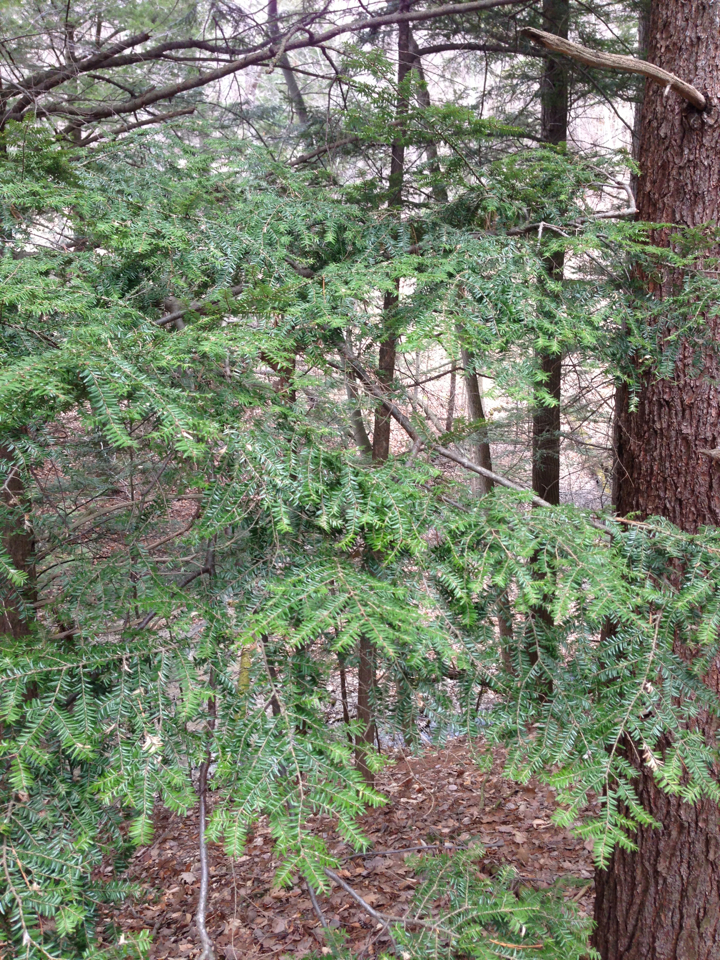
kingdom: Plantae
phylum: Tracheophyta
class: Pinopsida
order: Pinales
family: Pinaceae
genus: Tsuga
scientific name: Tsuga canadensis
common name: Eastern hemlock
